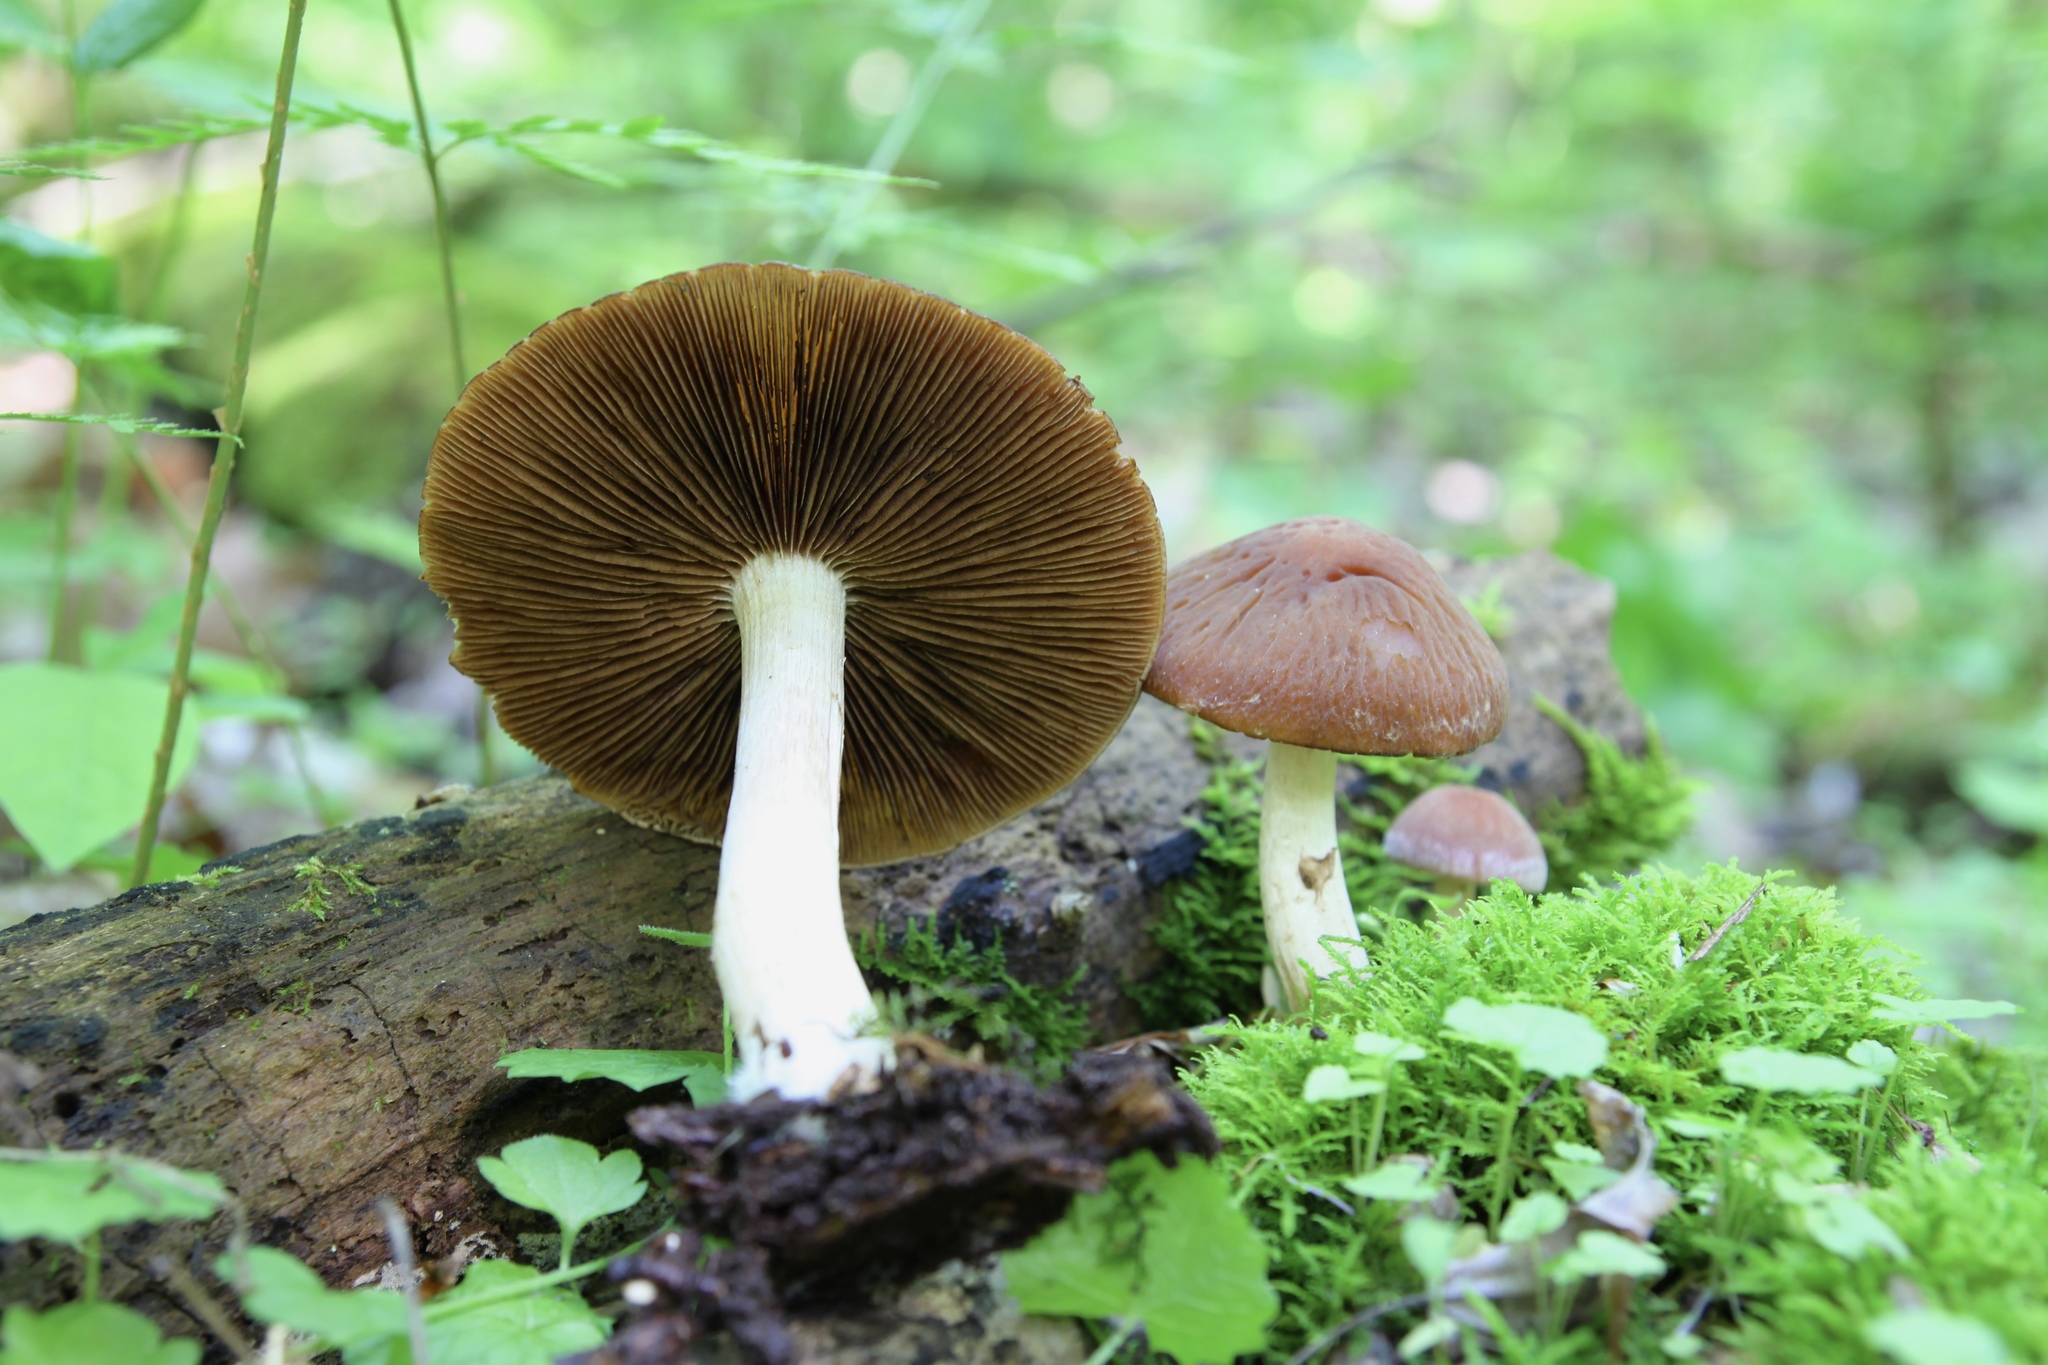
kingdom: Fungi
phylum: Basidiomycota
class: Agaricomycetes
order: Agaricales
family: Psathyrellaceae
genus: Typhrasa
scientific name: Typhrasa gossypina
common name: Wrinkled psathyrella
